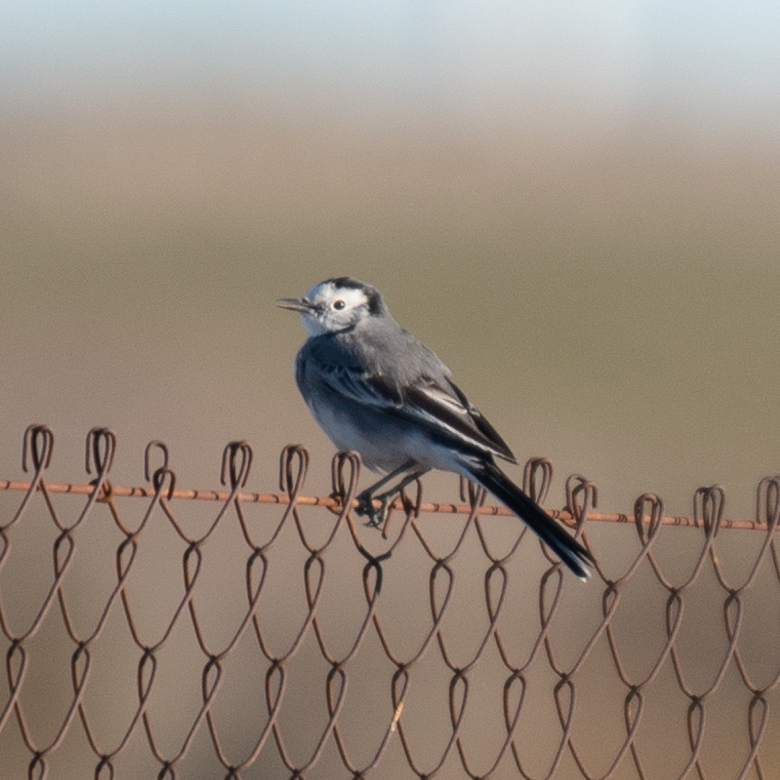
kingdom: Animalia
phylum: Chordata
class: Aves
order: Passeriformes
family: Motacillidae
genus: Motacilla
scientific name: Motacilla alba
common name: White wagtail
